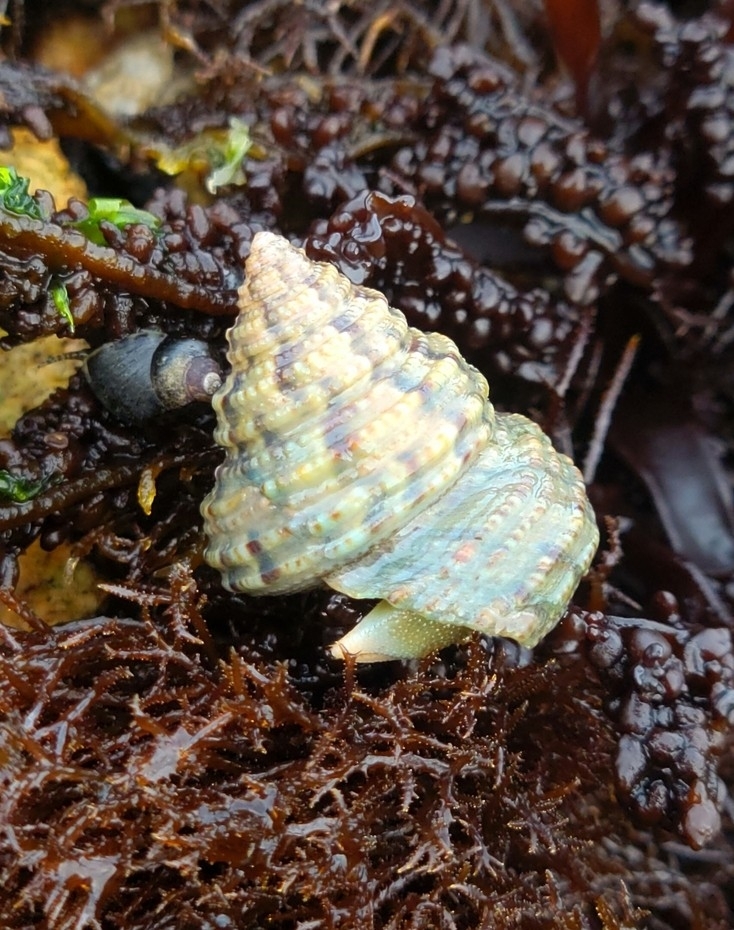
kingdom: Animalia
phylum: Mollusca
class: Gastropoda
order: Trochida
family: Calliostomatidae
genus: Calliostoma
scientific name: Calliostoma gemmulatum
